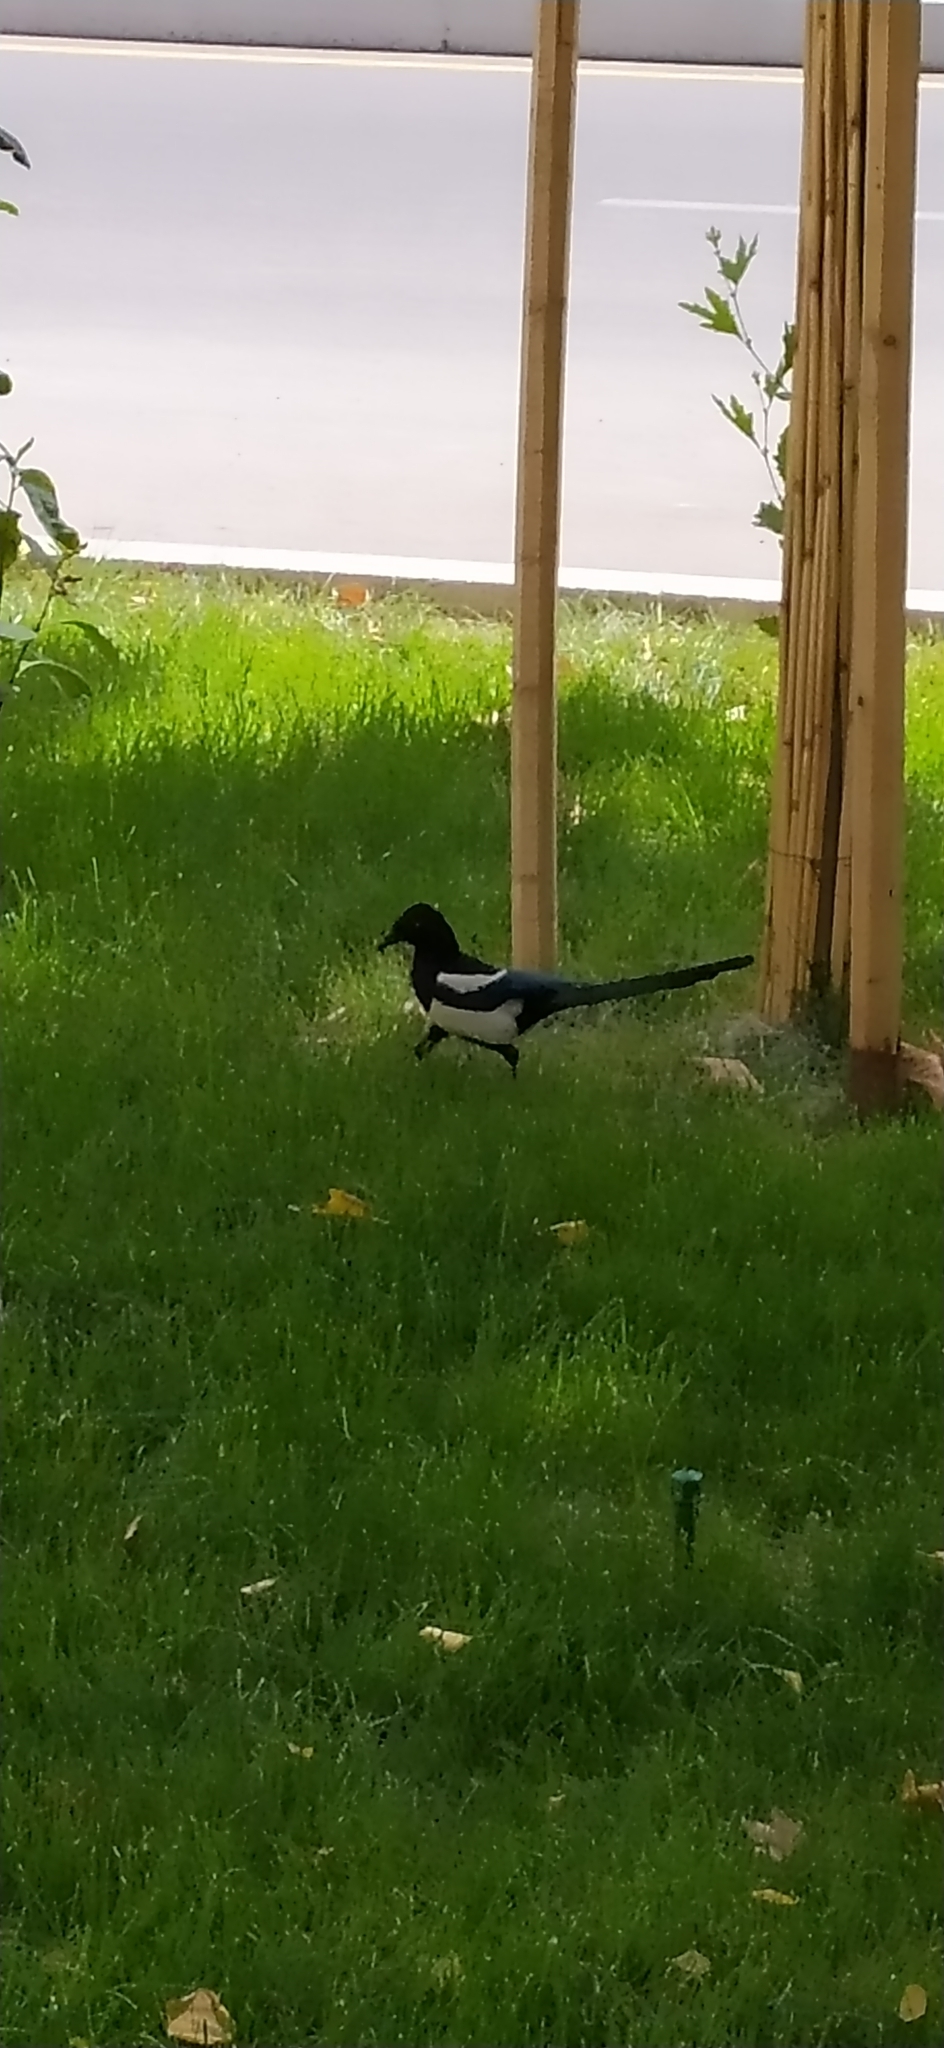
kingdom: Animalia
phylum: Chordata
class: Aves
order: Passeriformes
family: Corvidae
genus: Pica
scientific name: Pica pica
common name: Eurasian magpie
